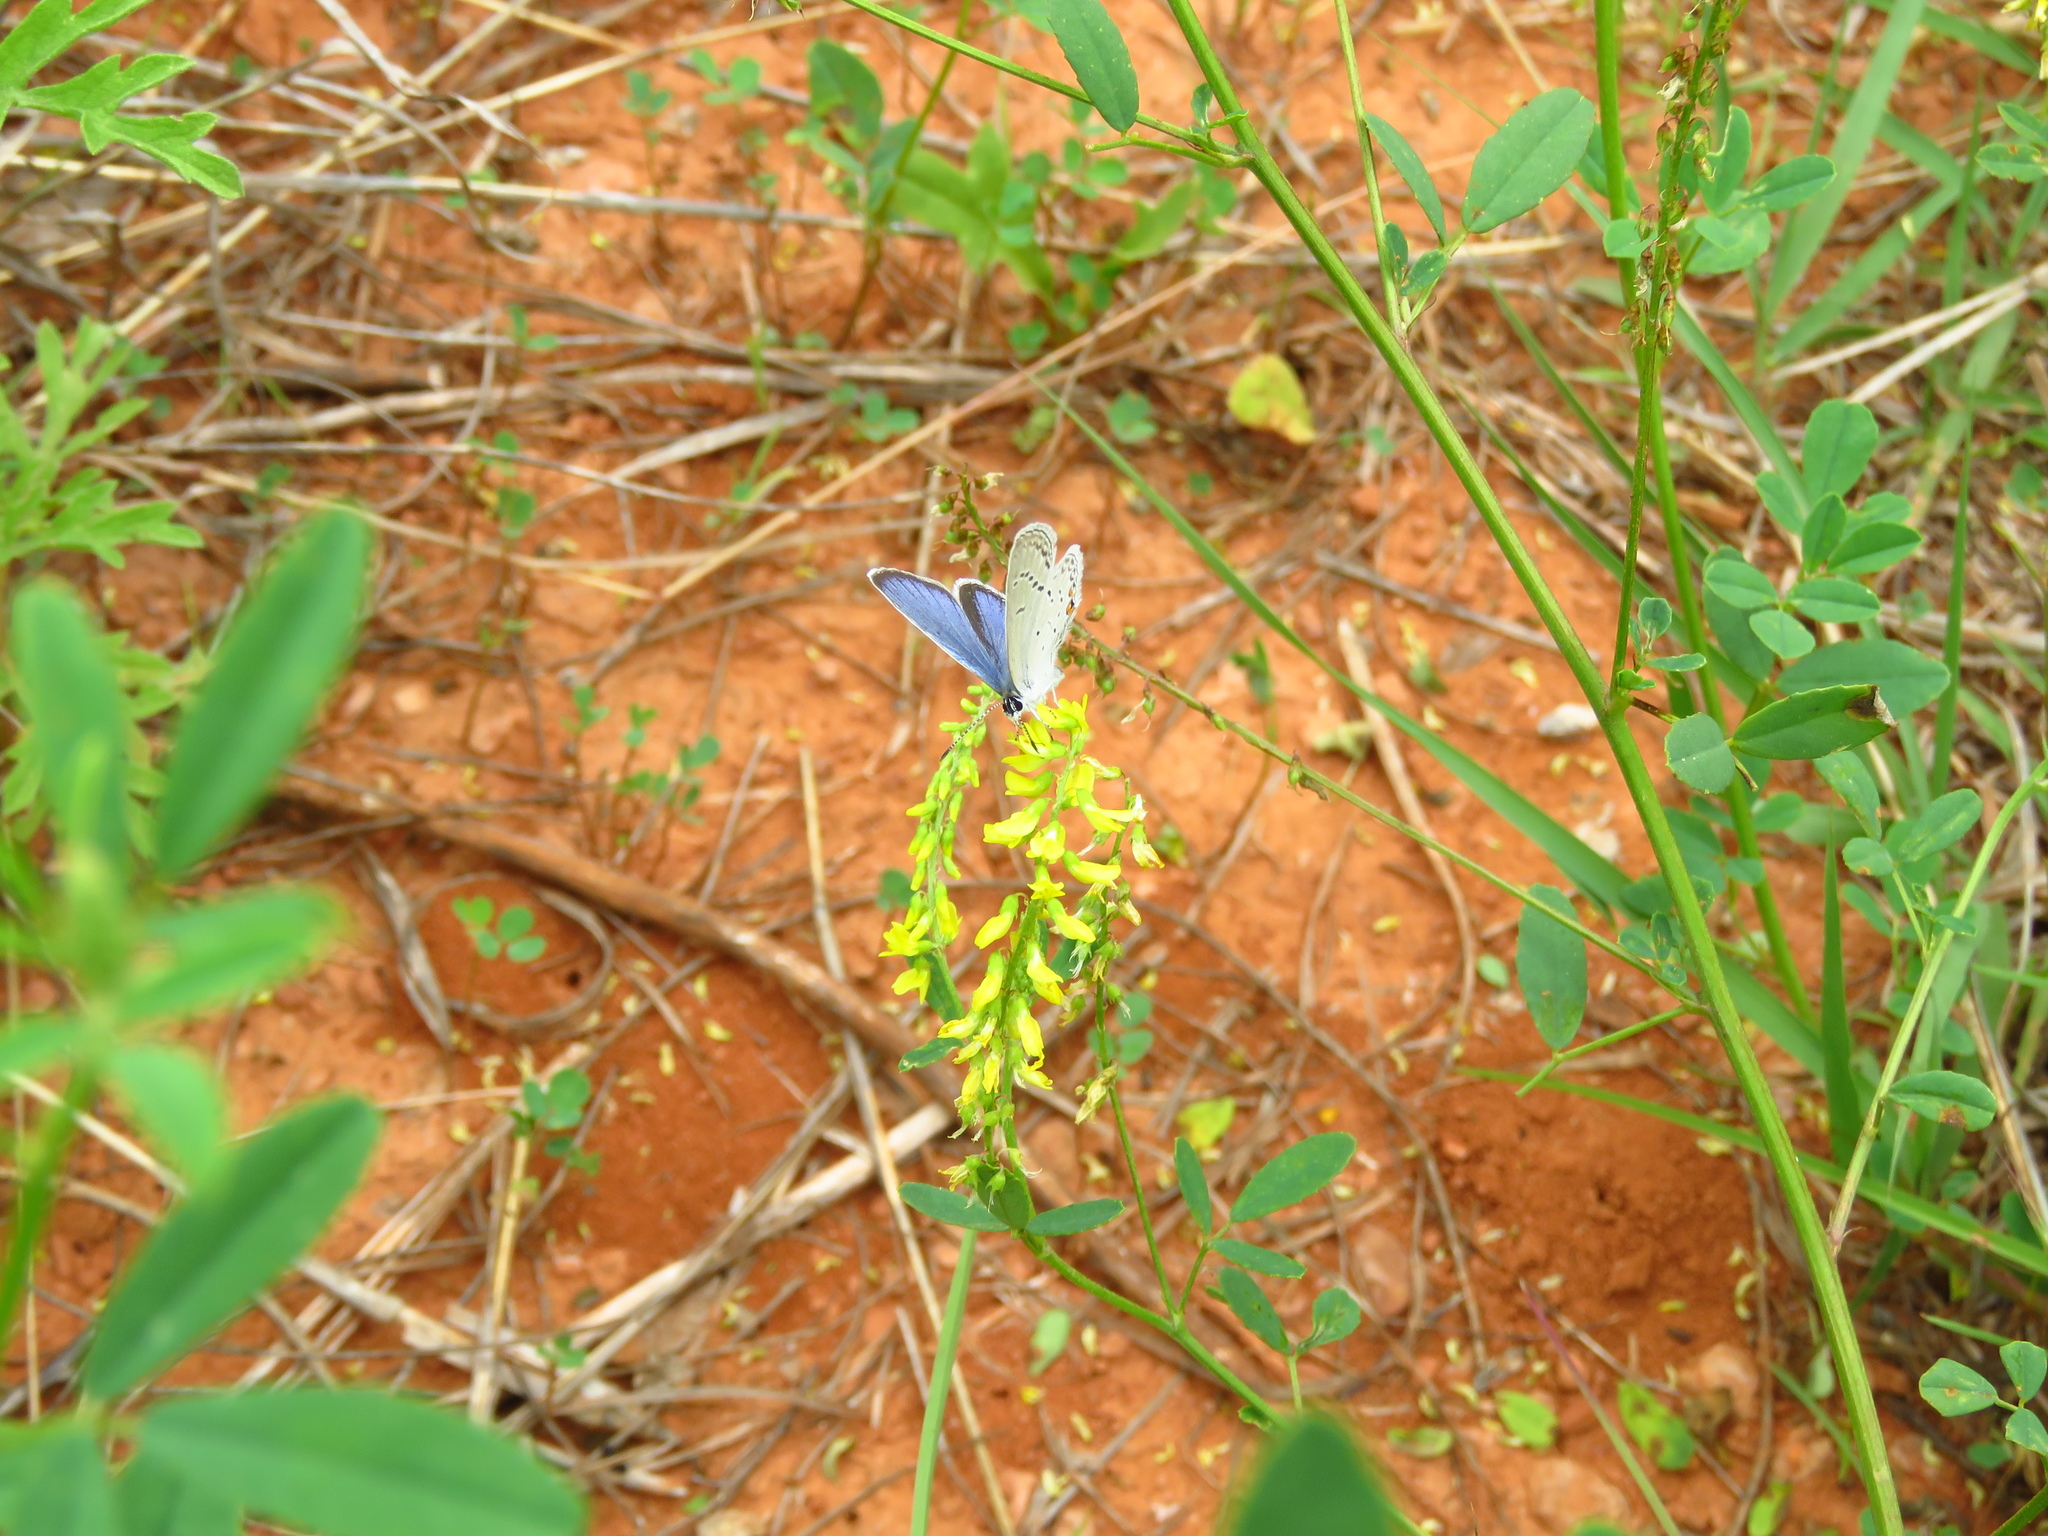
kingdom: Plantae
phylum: Tracheophyta
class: Magnoliopsida
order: Fabales
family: Fabaceae
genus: Melilotus
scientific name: Melilotus officinalis
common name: Sweetclover
